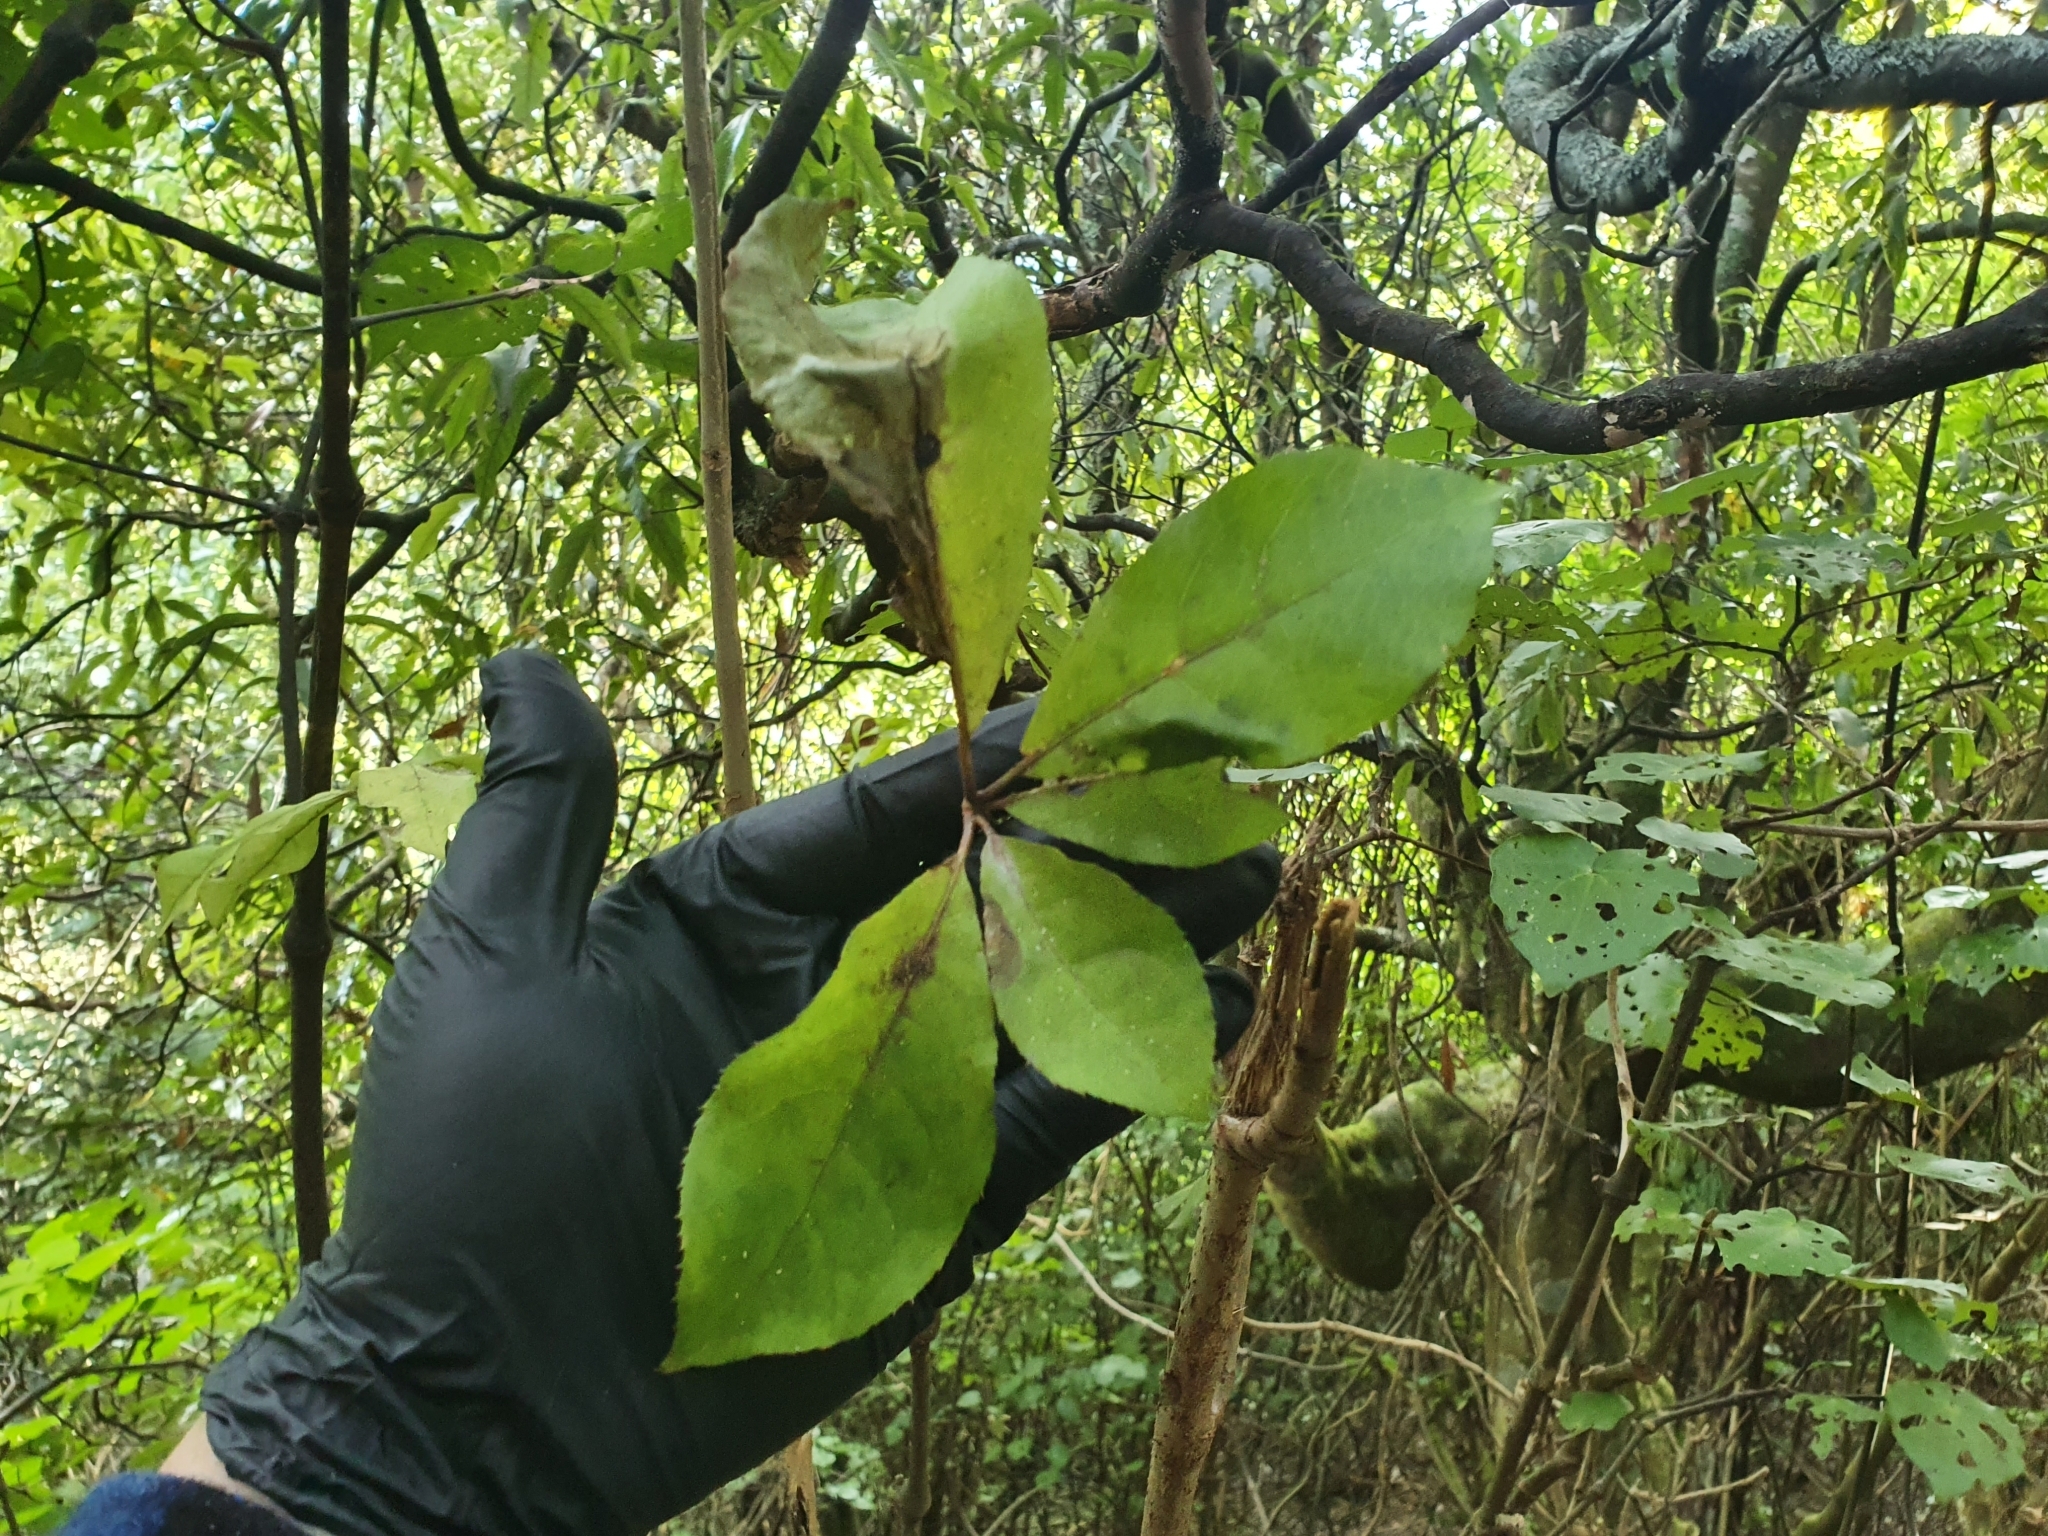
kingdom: Plantae
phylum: Tracheophyta
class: Magnoliopsida
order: Apiales
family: Araliaceae
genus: Schefflera
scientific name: Schefflera digitata
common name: Pate
